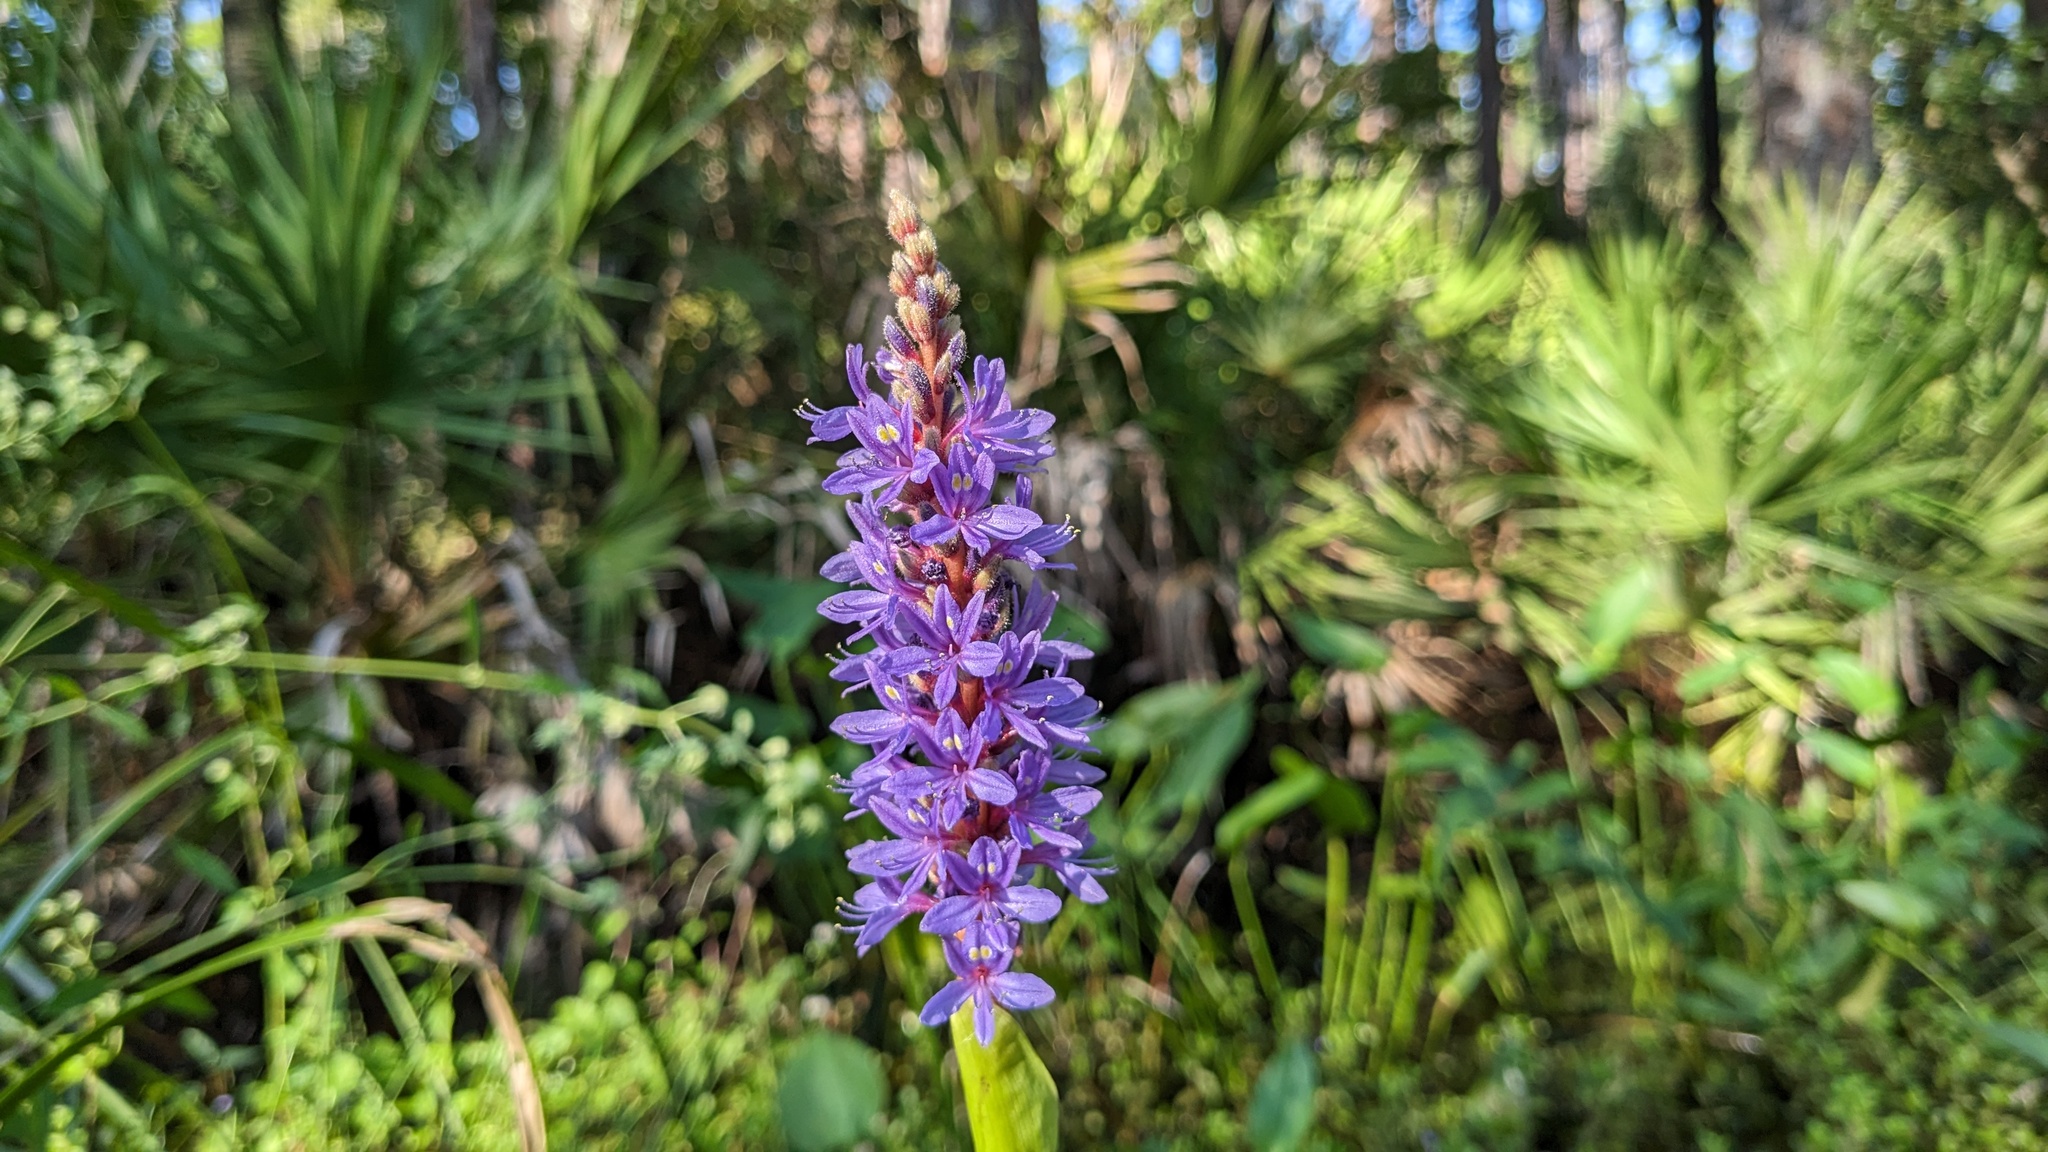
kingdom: Plantae
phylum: Tracheophyta
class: Liliopsida
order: Commelinales
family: Pontederiaceae
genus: Pontederia
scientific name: Pontederia cordata
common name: Pickerelweed
